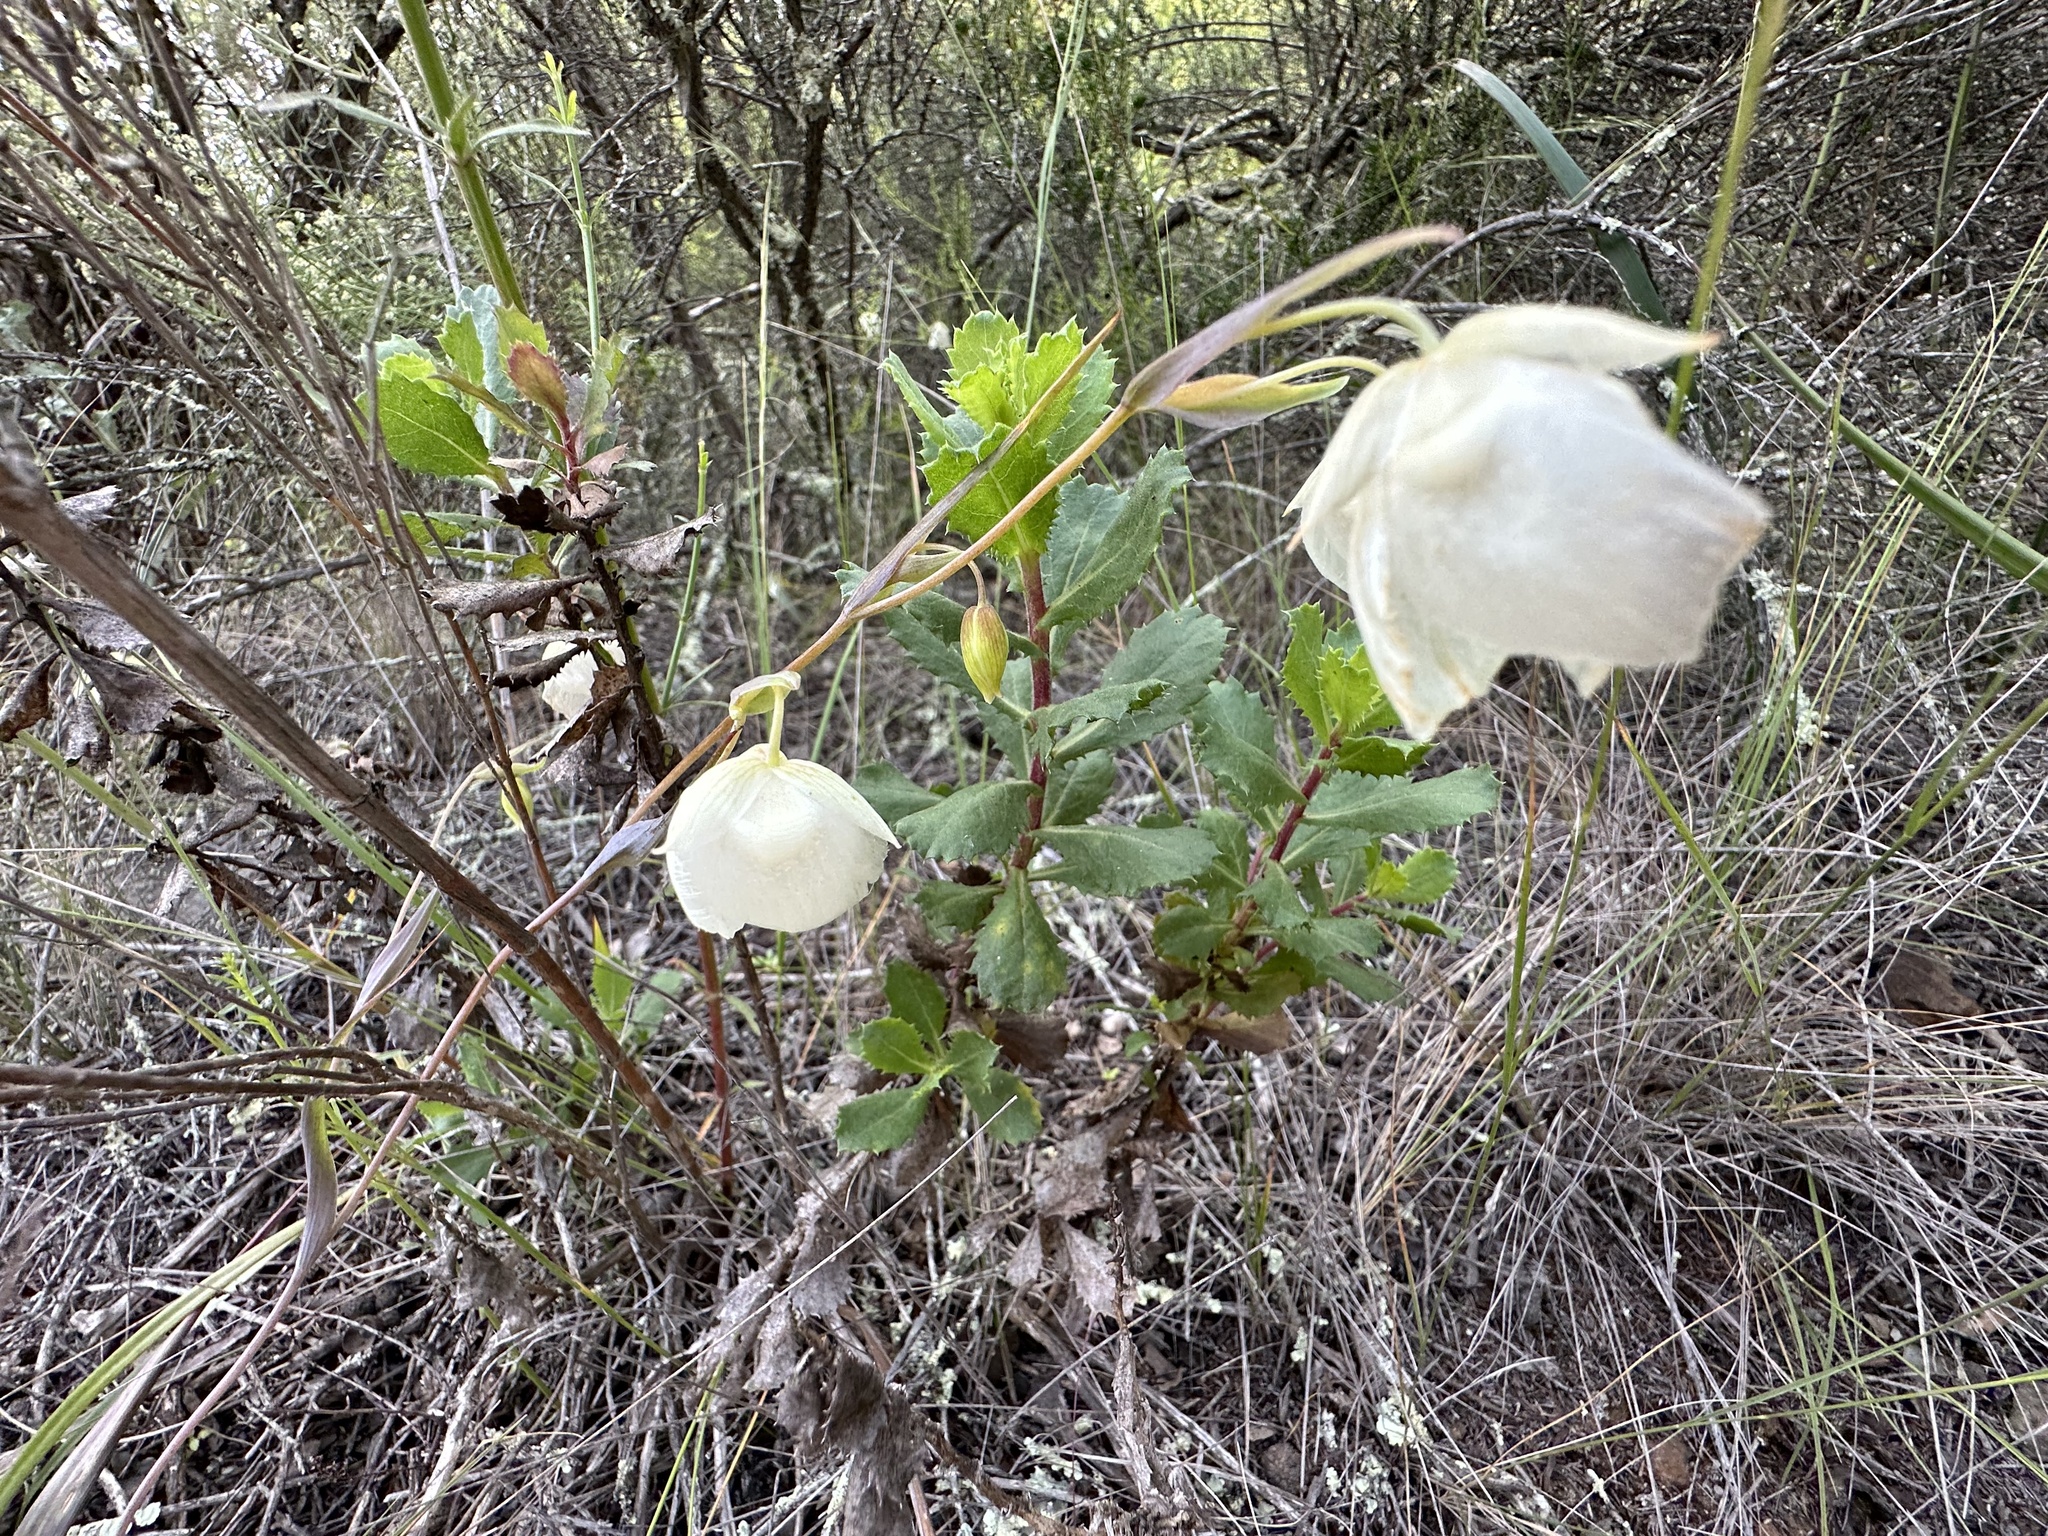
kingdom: Plantae
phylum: Tracheophyta
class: Liliopsida
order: Liliales
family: Liliaceae
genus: Calochortus
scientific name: Calochortus albus
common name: Fairy-lantern
